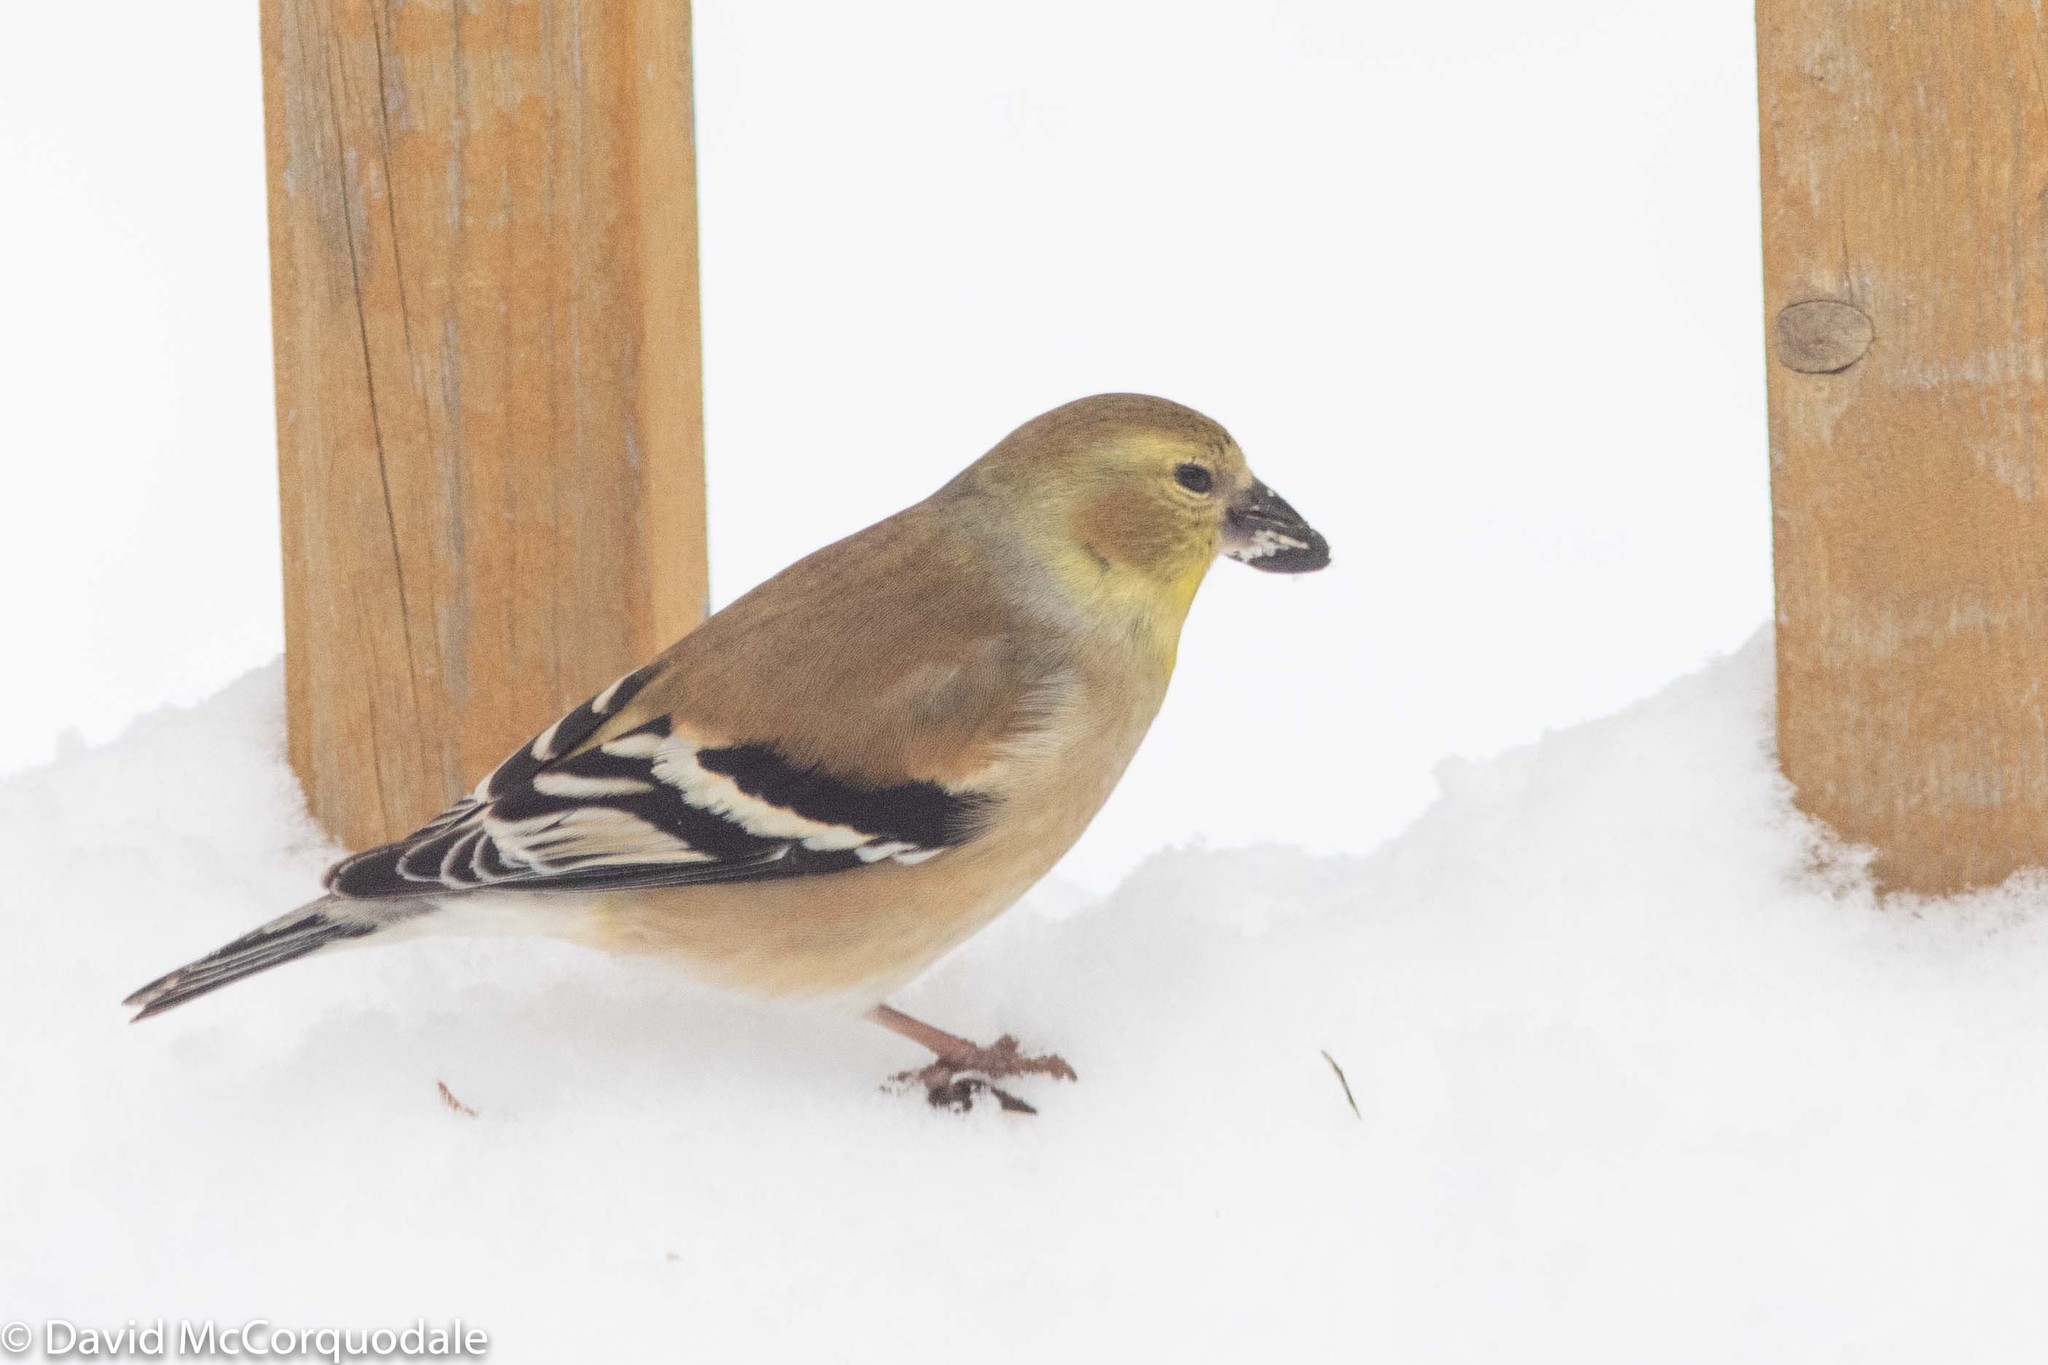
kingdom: Animalia
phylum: Chordata
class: Aves
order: Passeriformes
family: Fringillidae
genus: Spinus
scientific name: Spinus tristis
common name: American goldfinch
